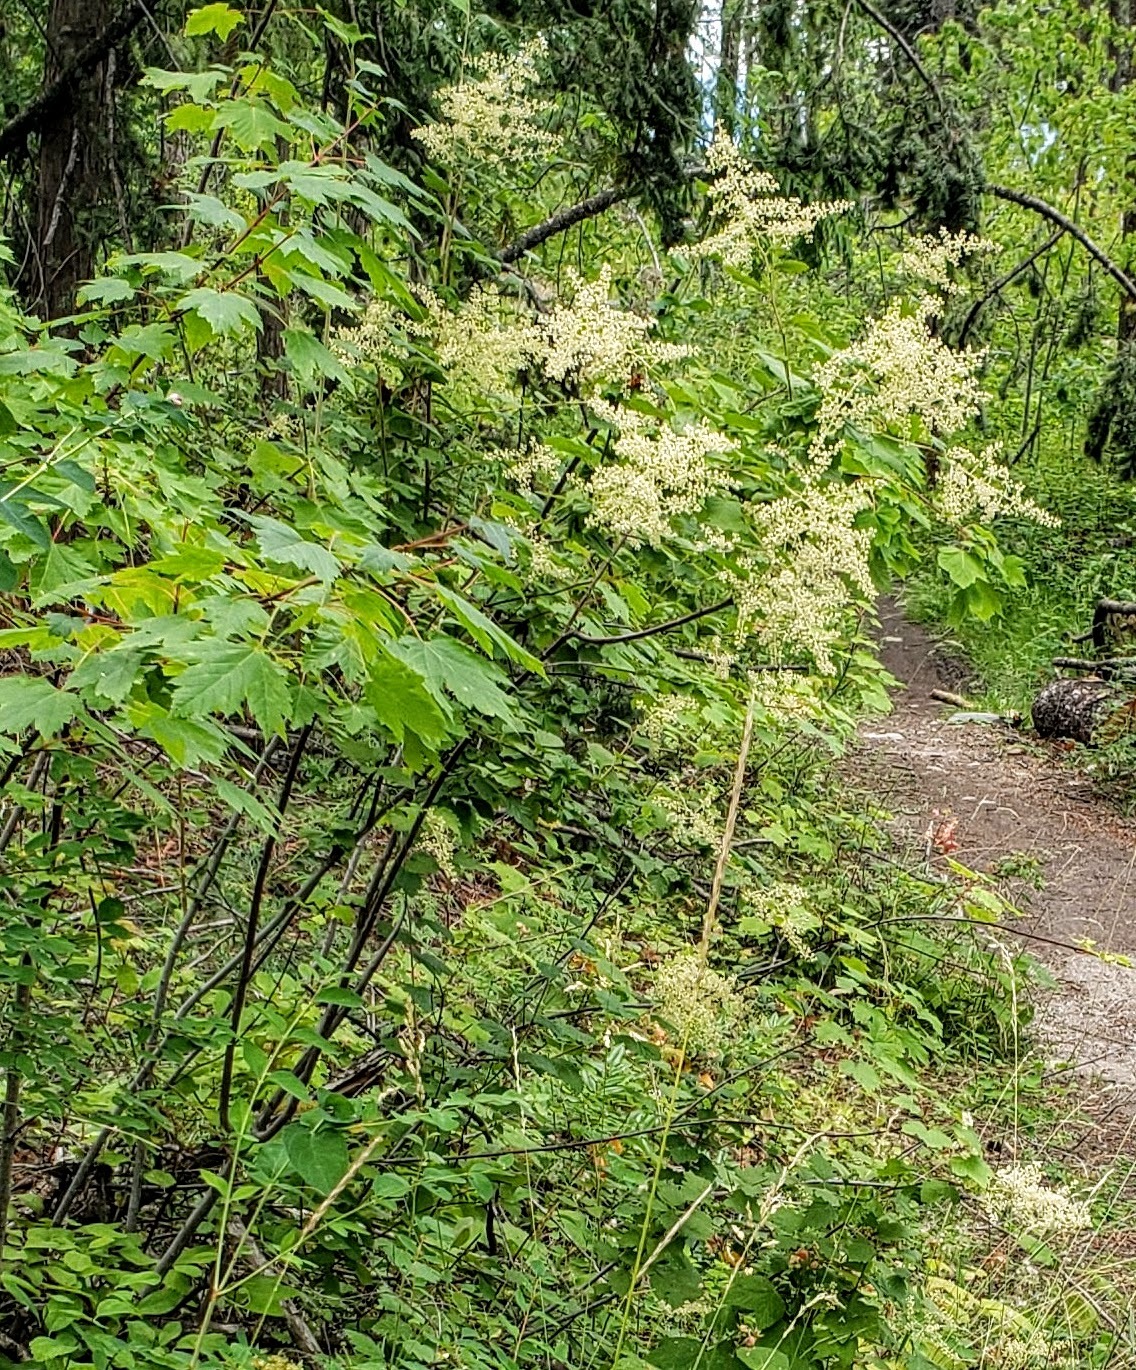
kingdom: Plantae
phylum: Tracheophyta
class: Magnoliopsida
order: Rosales
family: Rosaceae
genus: Holodiscus
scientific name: Holodiscus discolor
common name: Oceanspray
